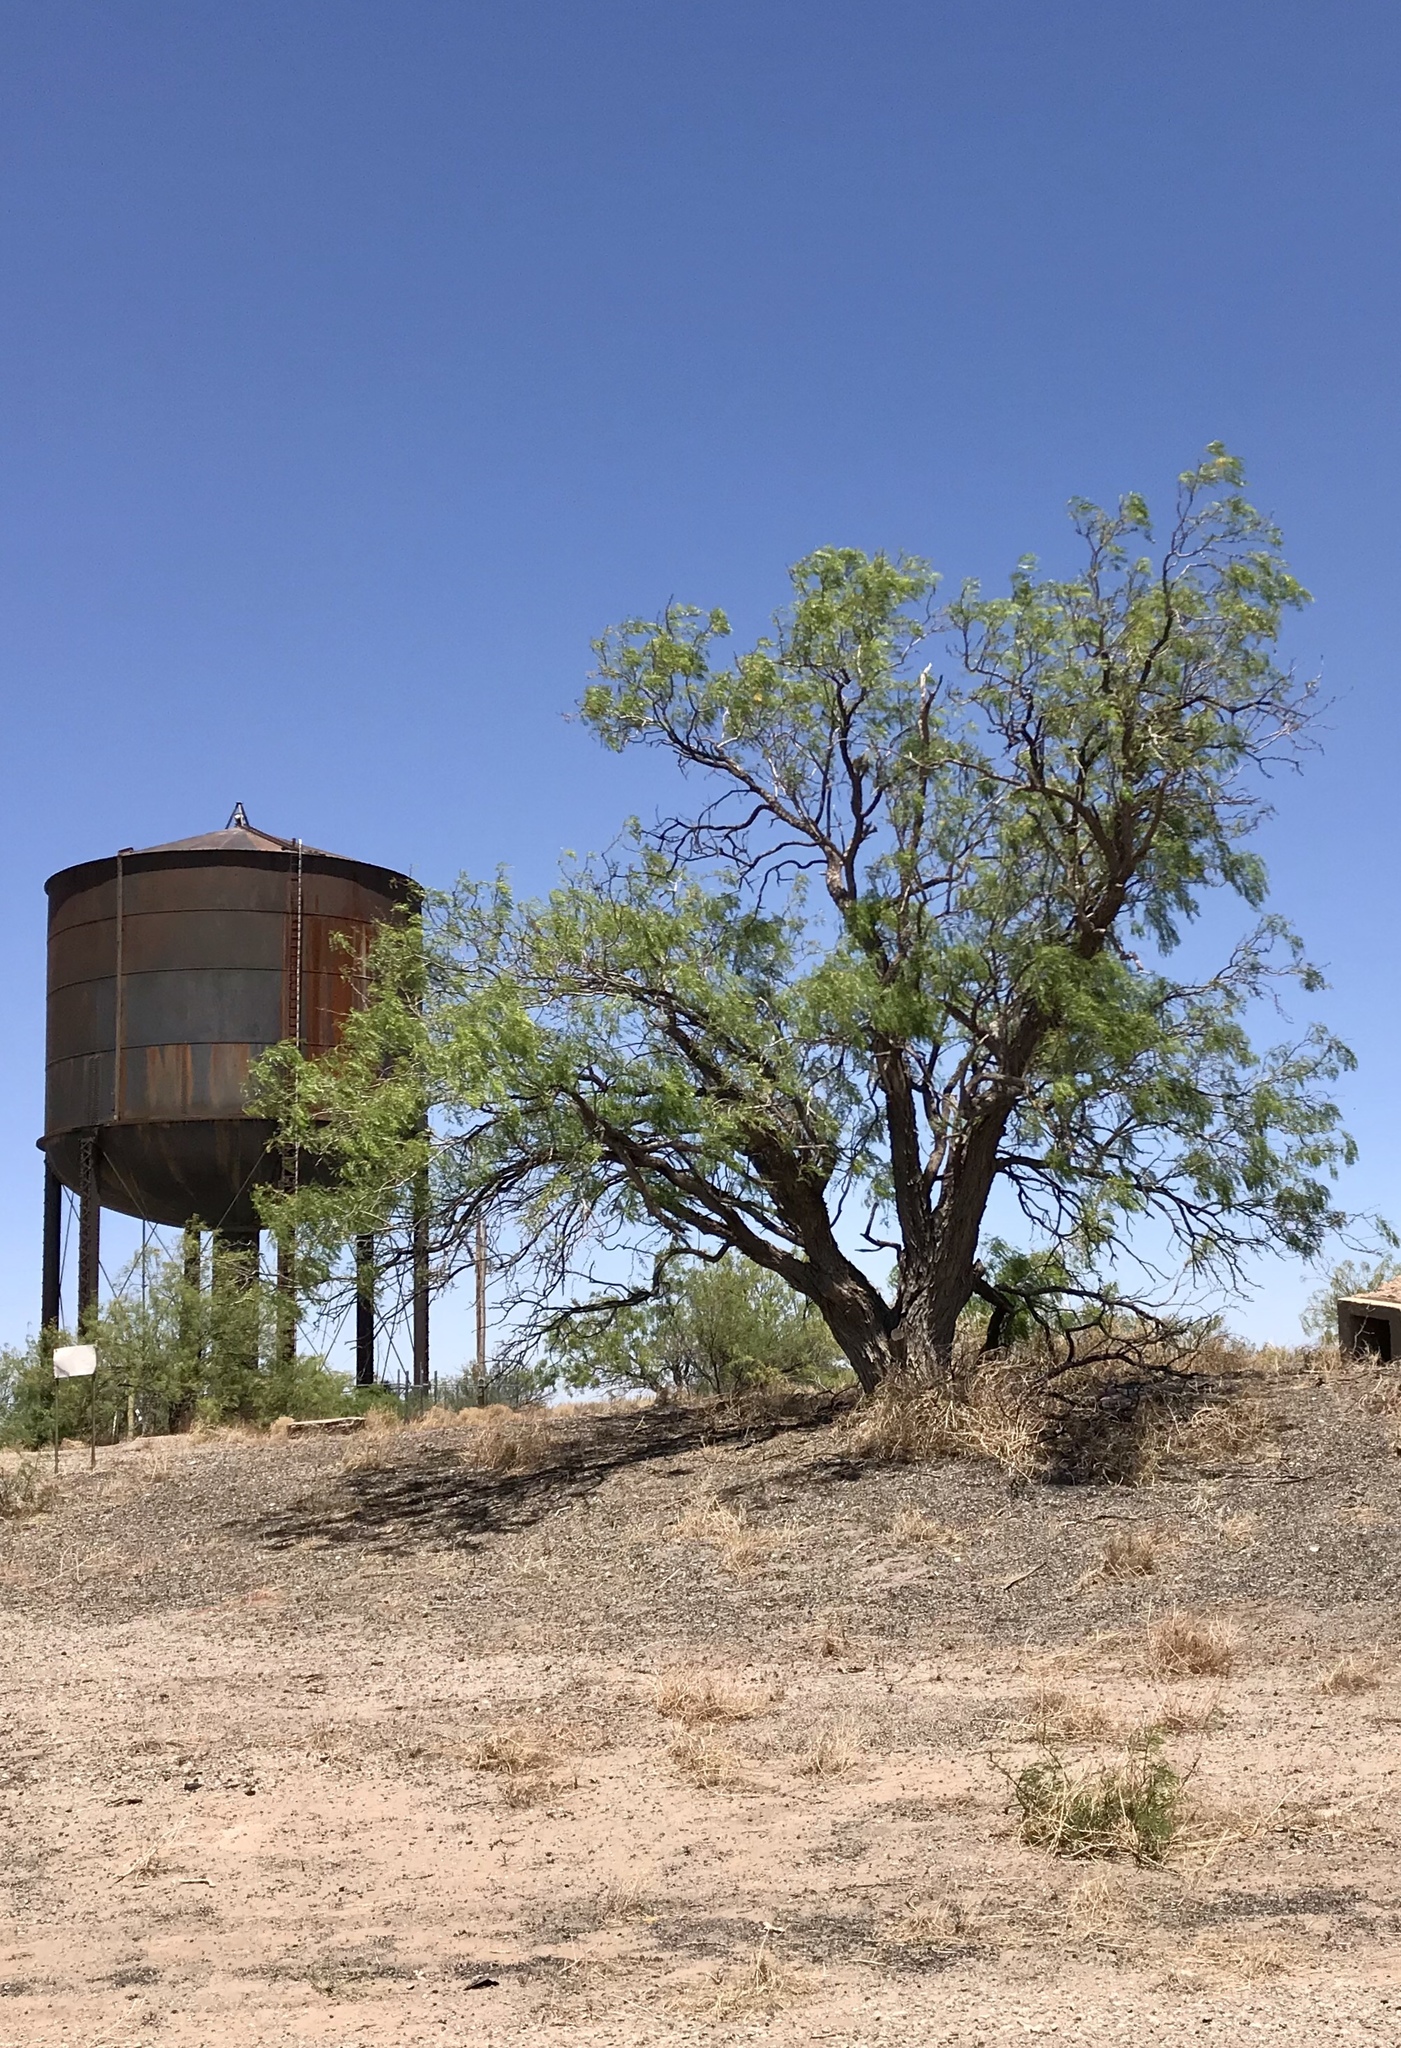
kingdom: Plantae
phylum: Tracheophyta
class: Magnoliopsida
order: Fabales
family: Fabaceae
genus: Prosopis
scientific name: Prosopis glandulosa
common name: Honey mesquite
